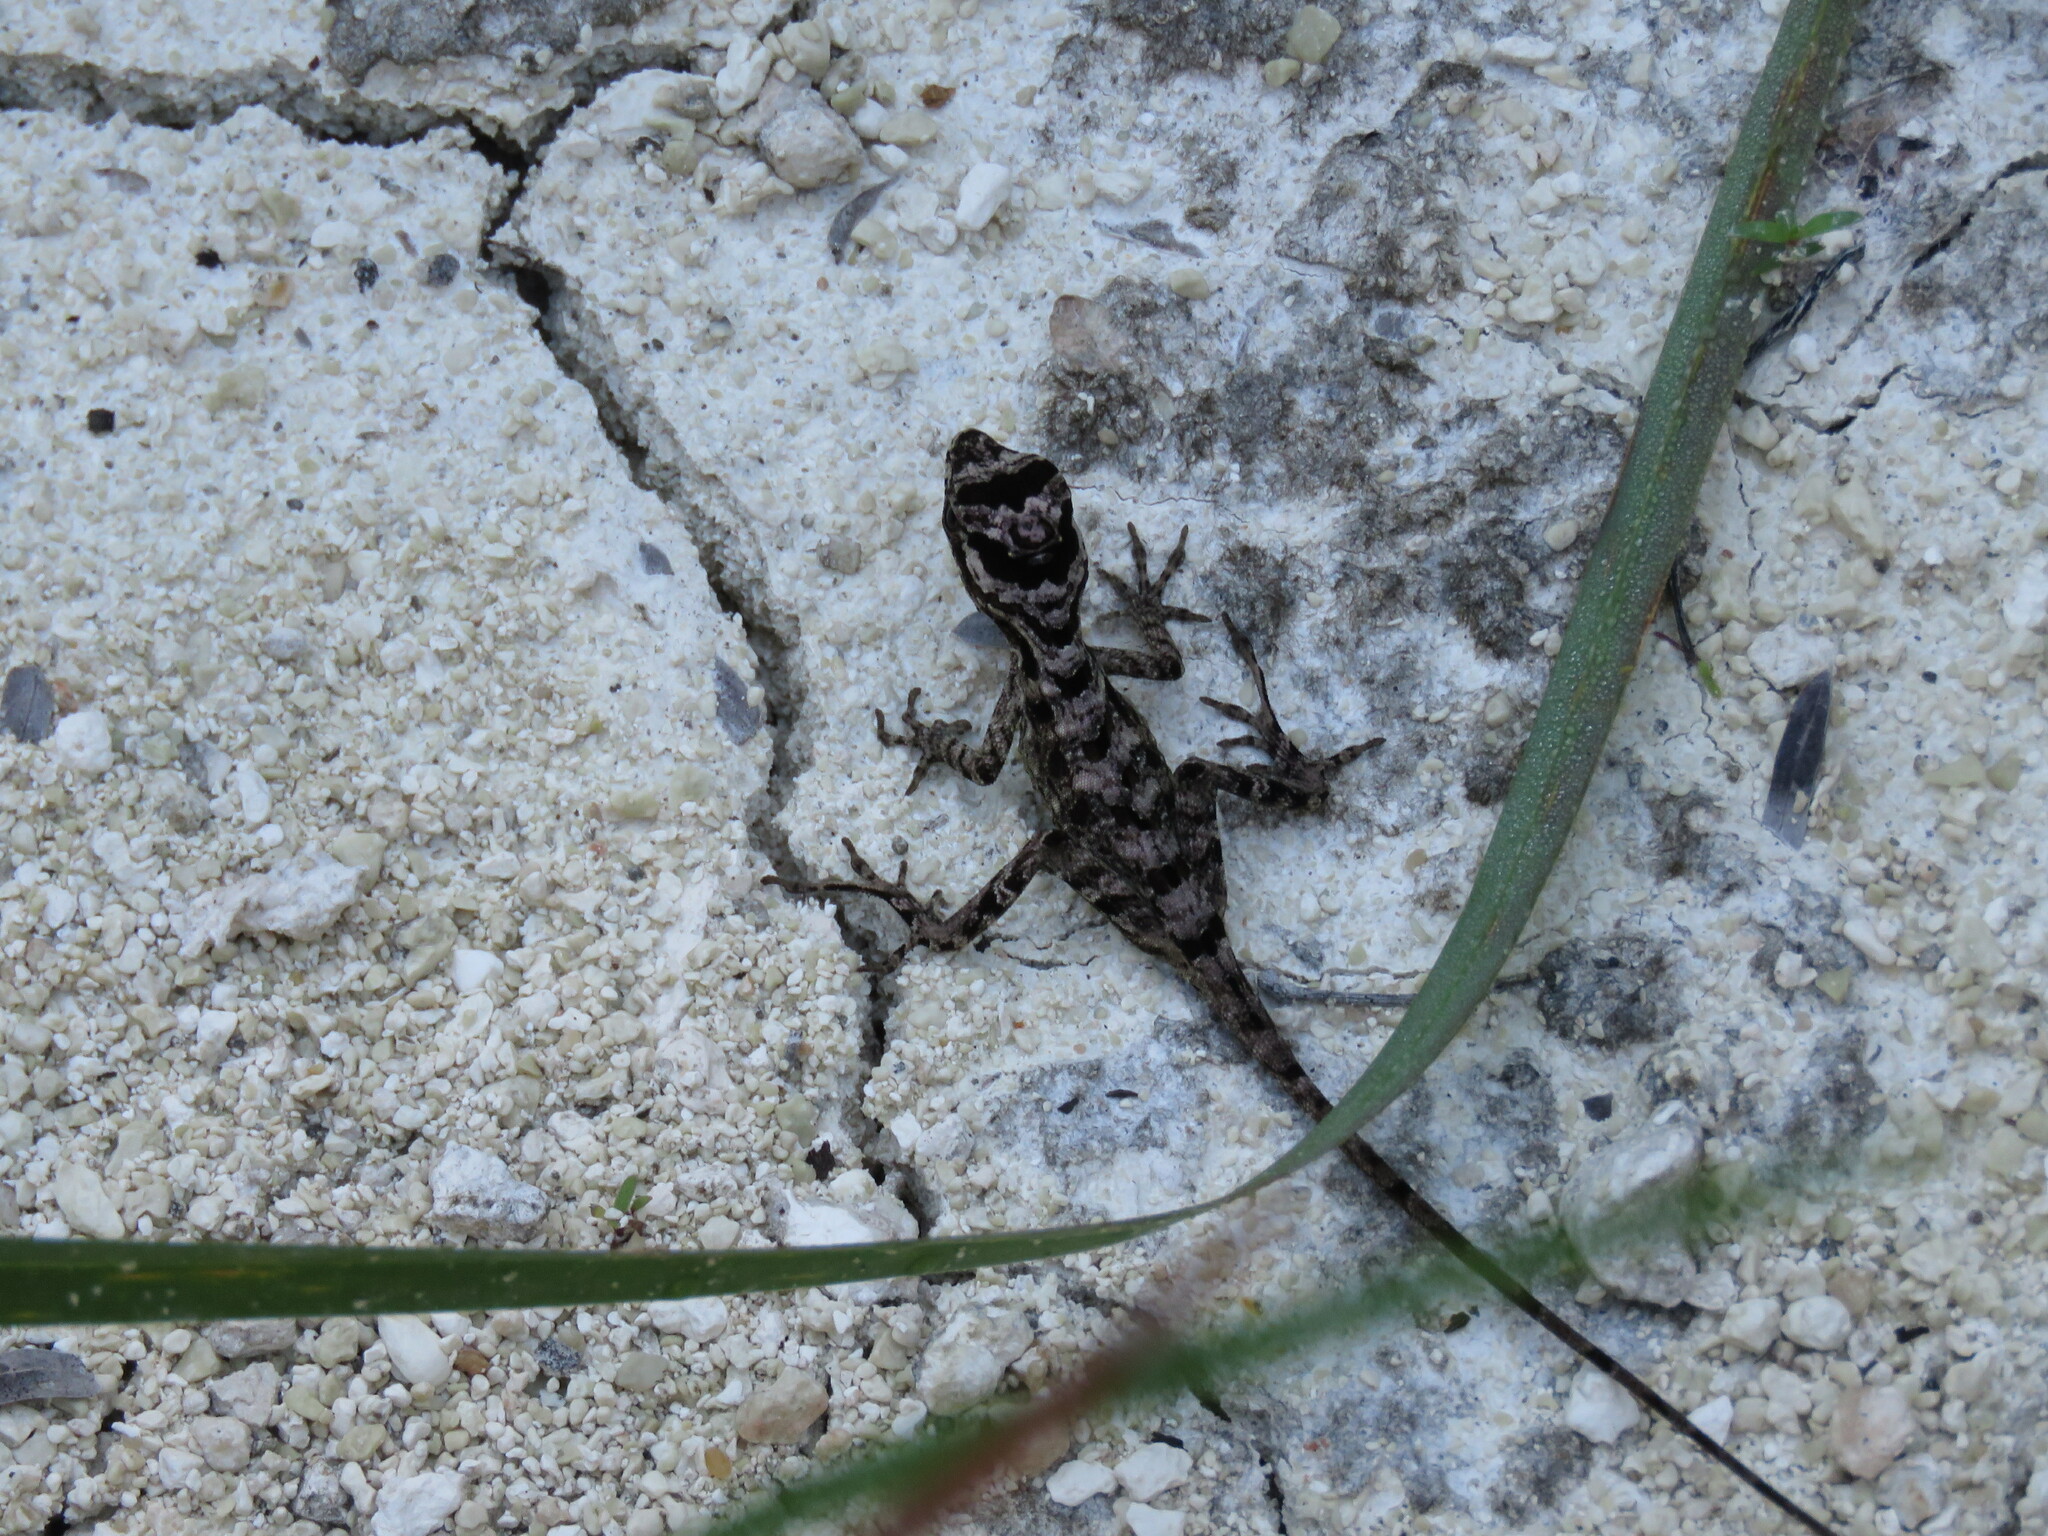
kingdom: Animalia
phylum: Chordata
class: Squamata
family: Dactyloidae
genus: Anolis
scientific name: Anolis lemurinus
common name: Ghost anole
